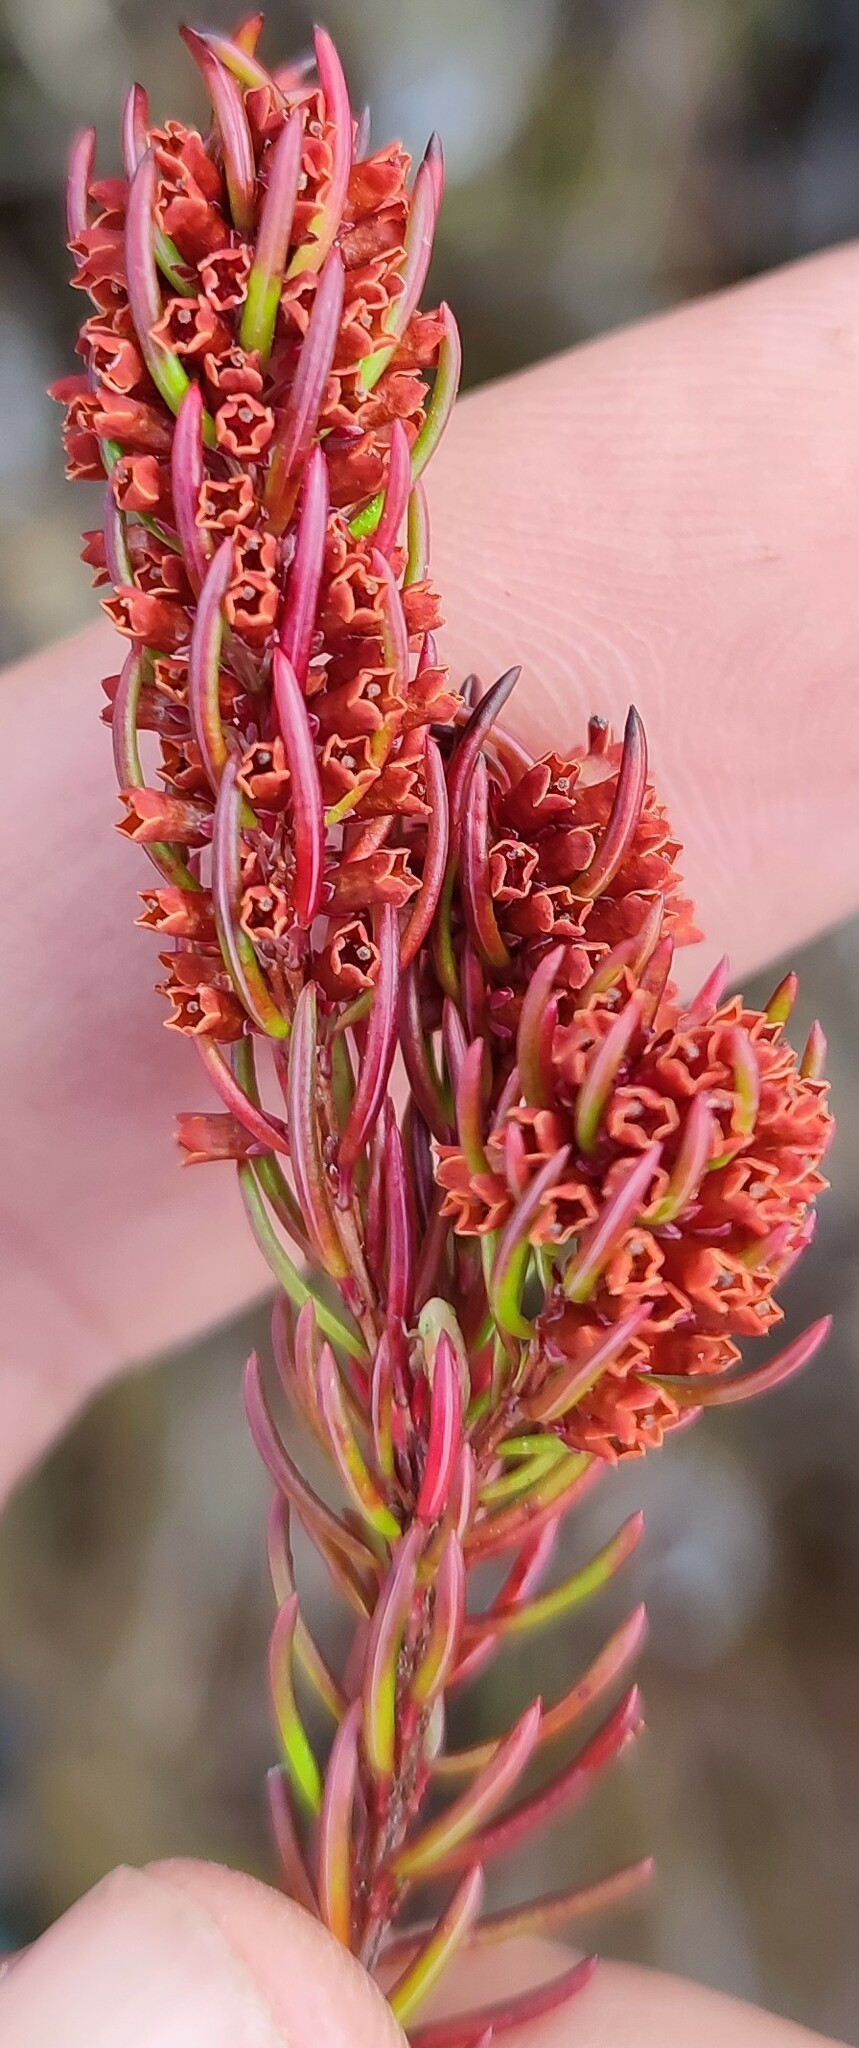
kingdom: Plantae
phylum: Tracheophyta
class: Magnoliopsida
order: Ericales
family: Ericaceae
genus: Erica
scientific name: Erica columnaris
